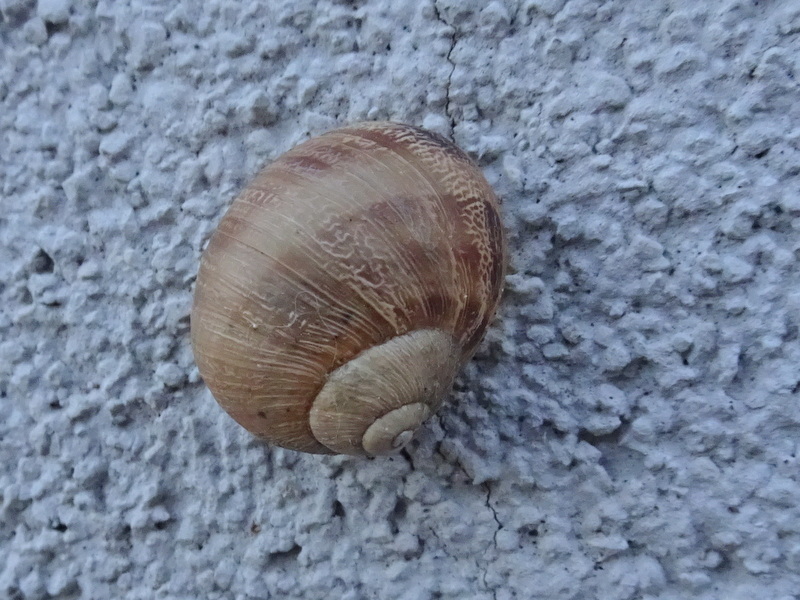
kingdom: Animalia
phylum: Mollusca
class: Gastropoda
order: Stylommatophora
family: Helicidae
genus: Cornu
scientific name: Cornu aspersum
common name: Brown garden snail
